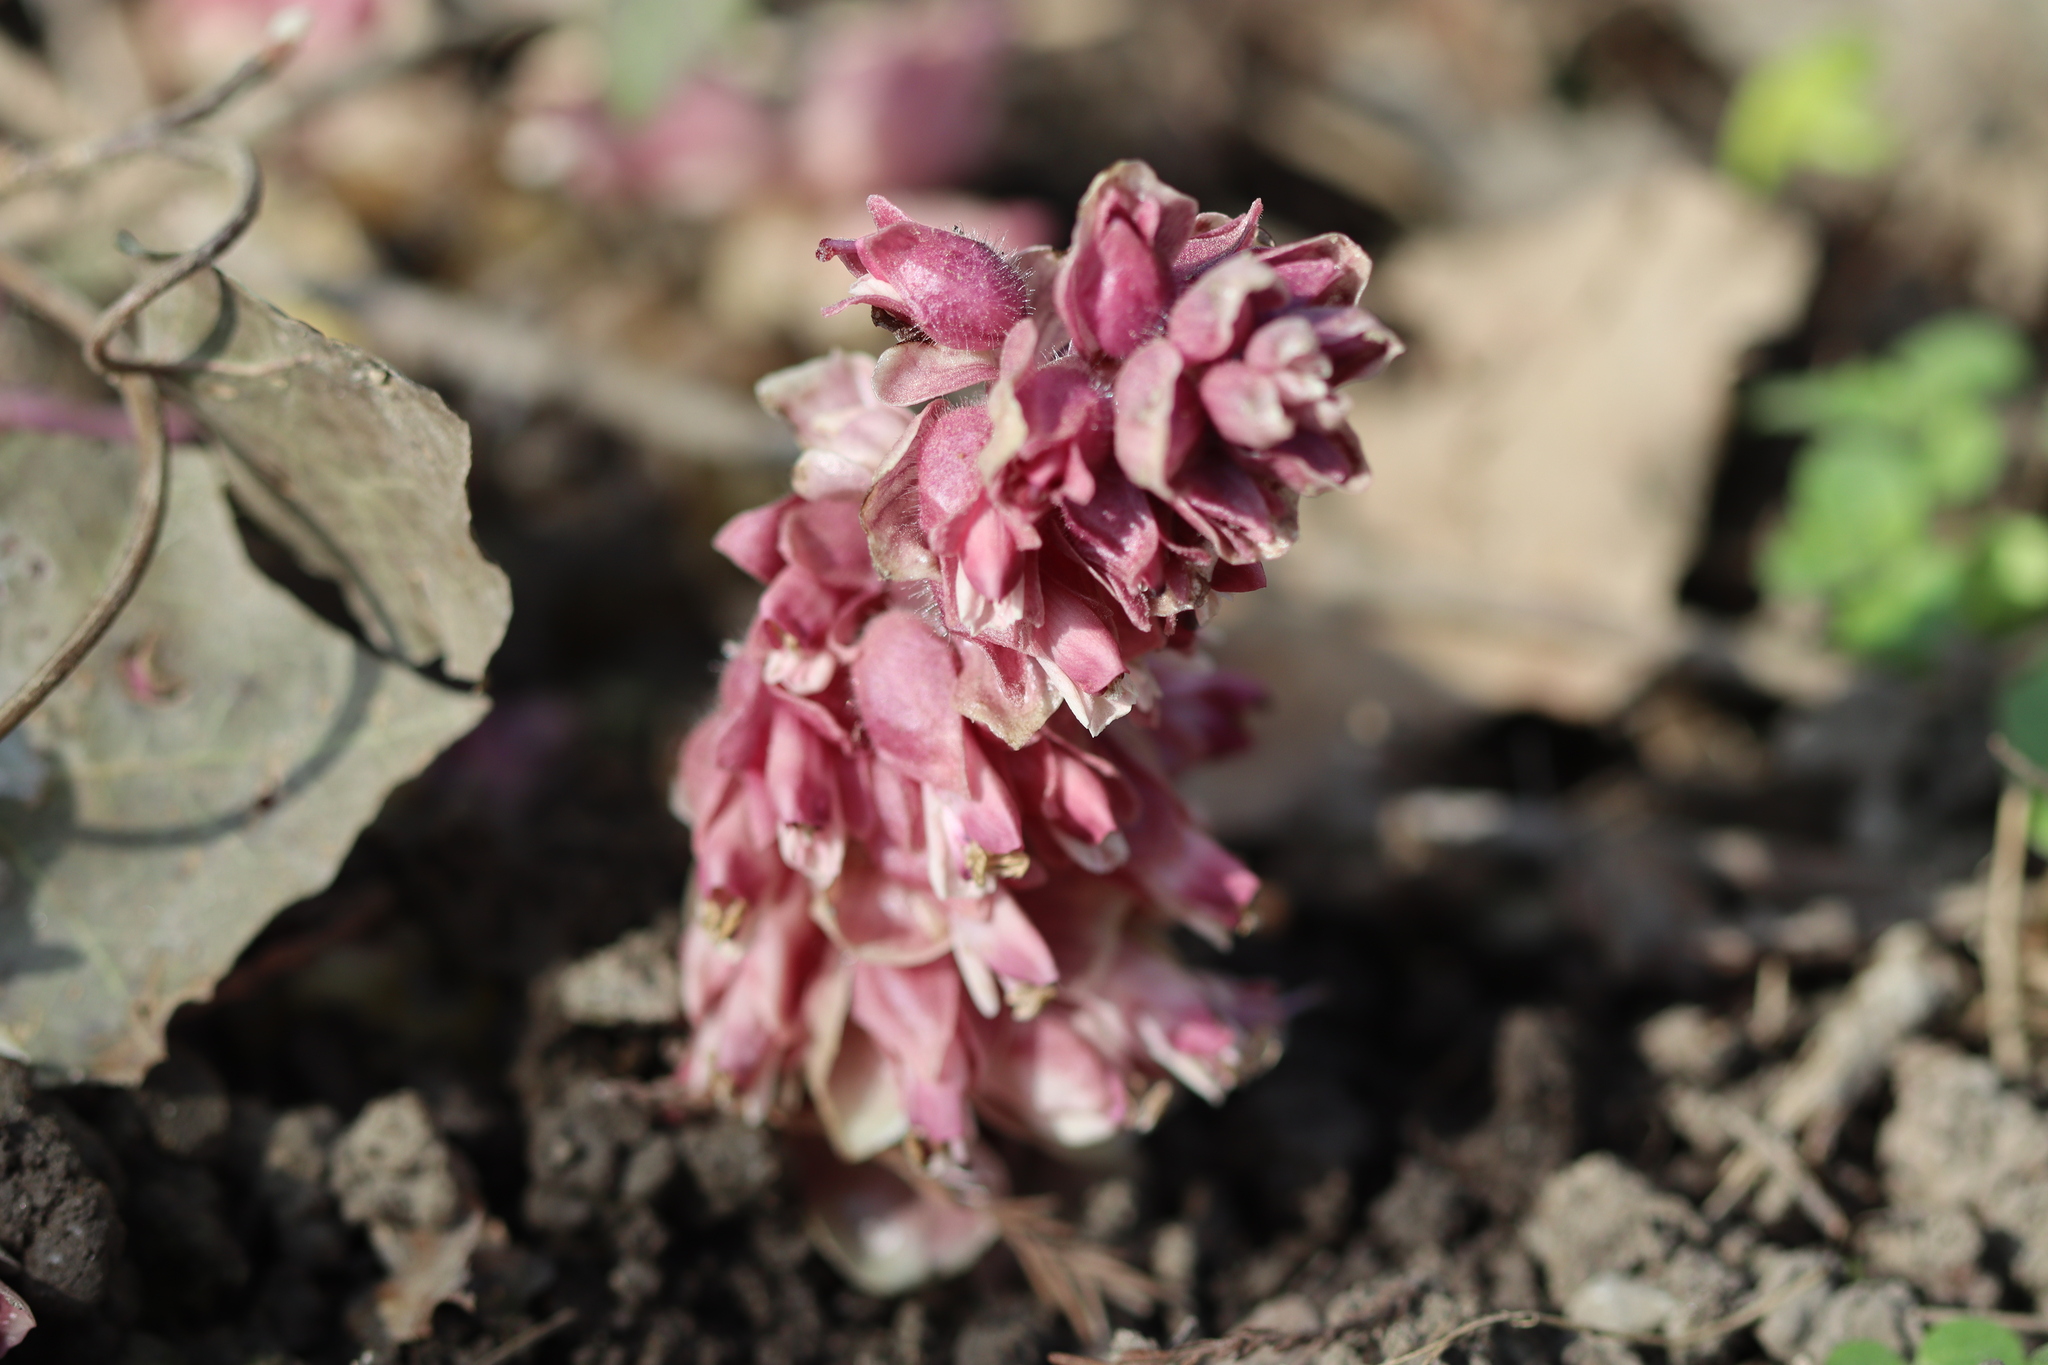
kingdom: Plantae
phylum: Tracheophyta
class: Magnoliopsida
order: Lamiales
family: Orobanchaceae
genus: Lathraea
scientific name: Lathraea squamaria
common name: Toothwort
